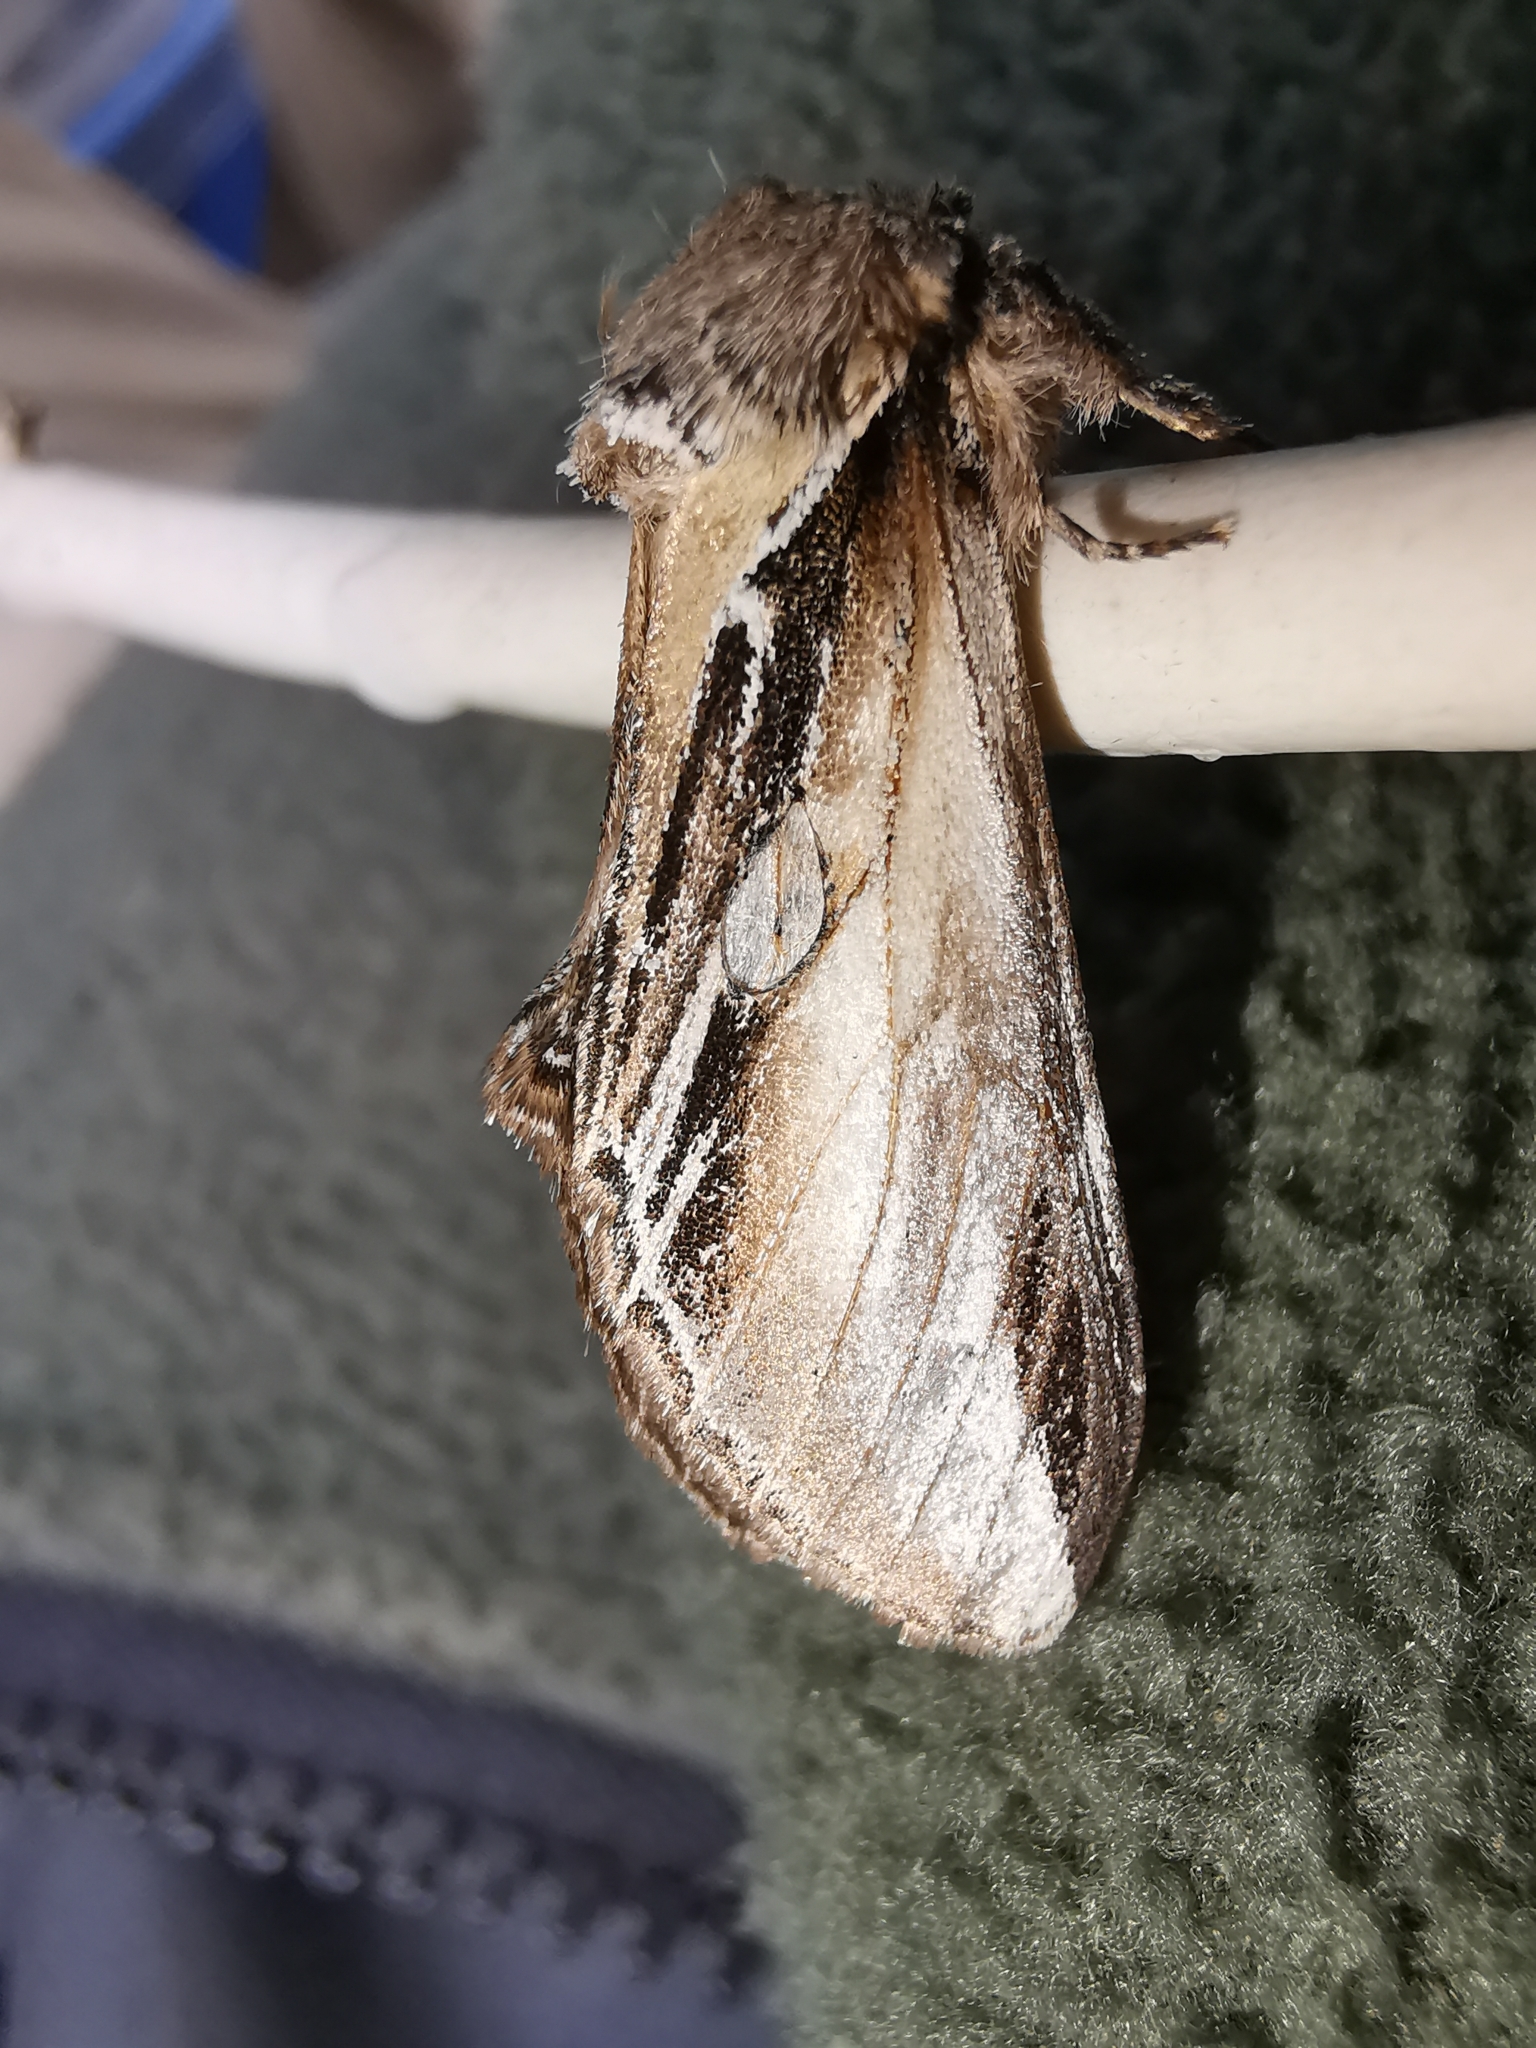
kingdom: Animalia
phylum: Arthropoda
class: Insecta
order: Lepidoptera
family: Notodontidae
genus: Pheosia
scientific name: Pheosia tremula
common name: Swallow prominent
